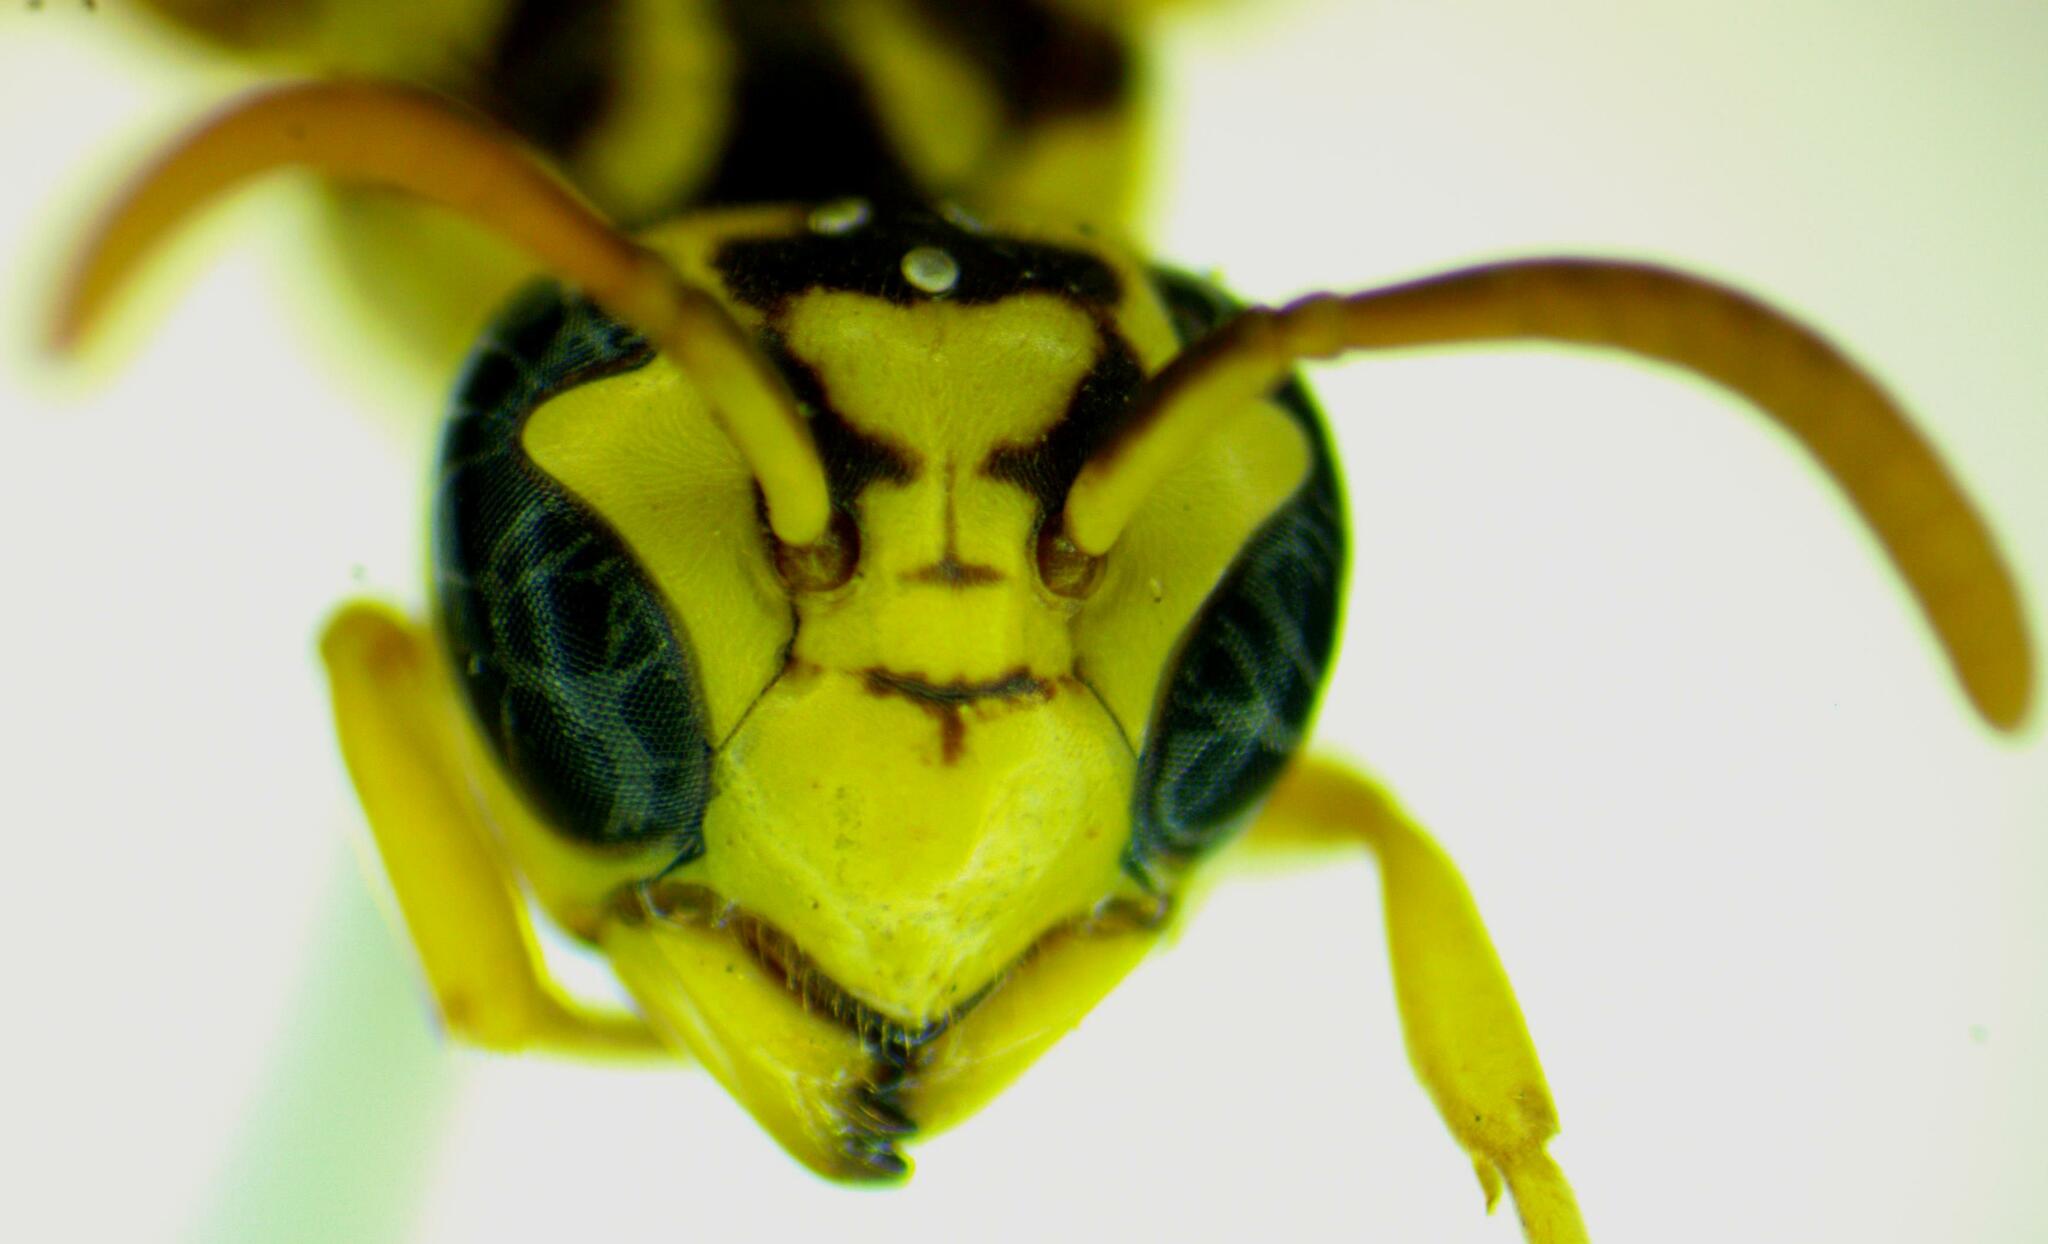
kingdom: Animalia
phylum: Arthropoda
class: Insecta
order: Hymenoptera
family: Eumenidae
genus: Polybia
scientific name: Polybia emaciata
